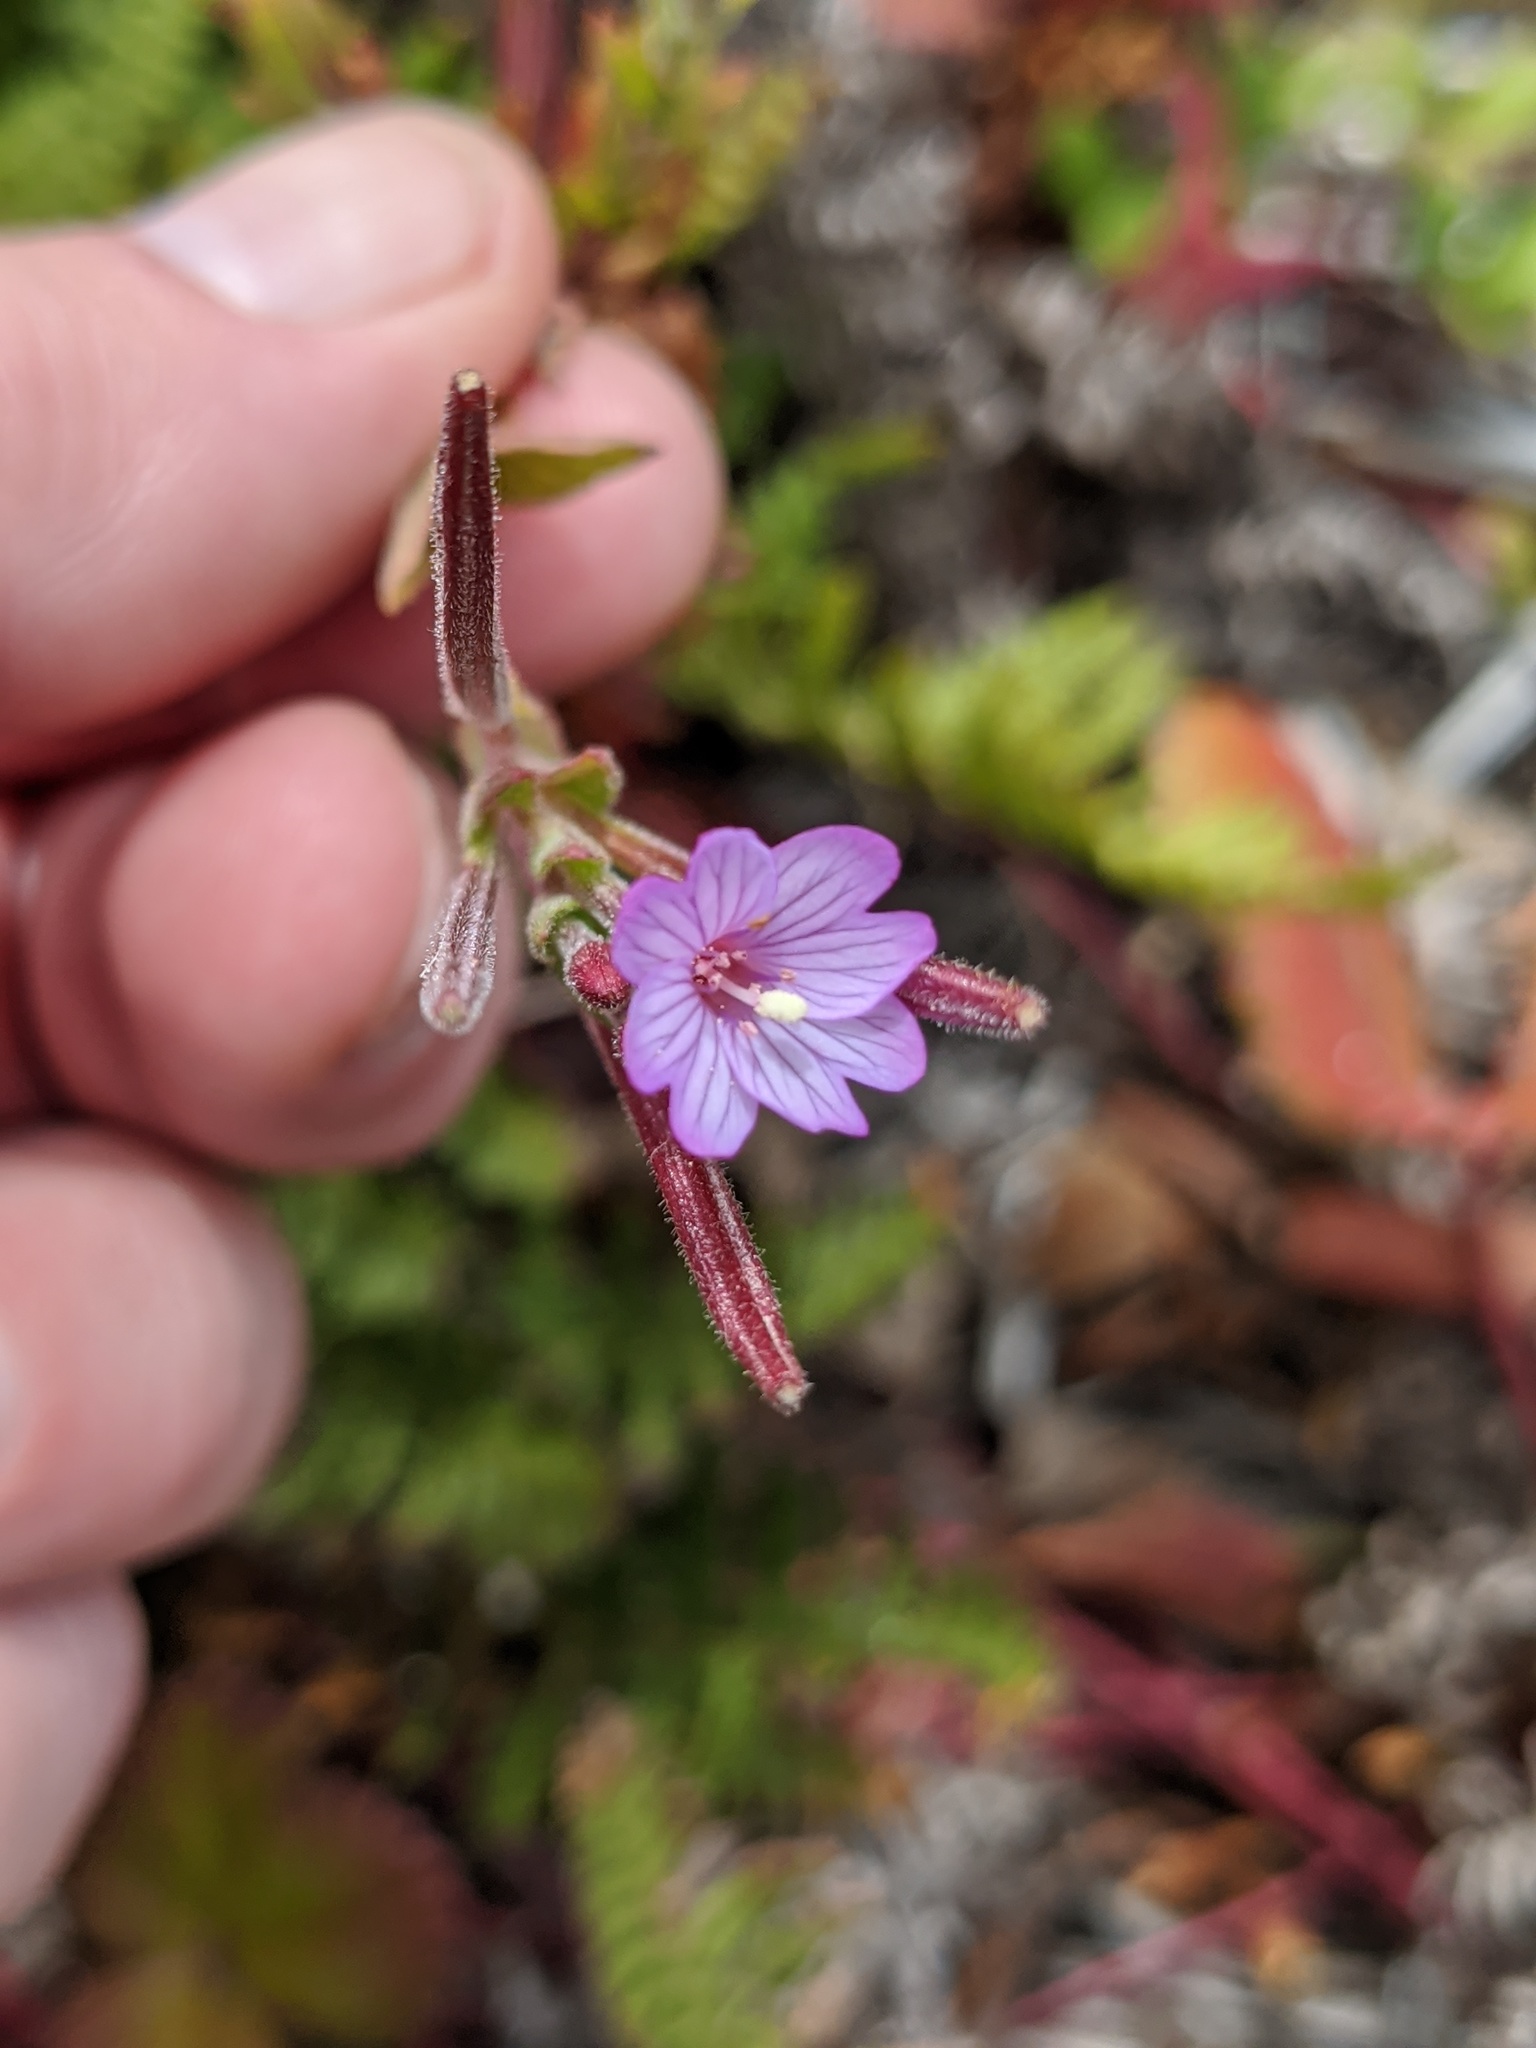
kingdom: Plantae
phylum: Tracheophyta
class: Magnoliopsida
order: Myrtales
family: Onagraceae
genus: Epilobium
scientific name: Epilobium ciliatum
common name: American willowherb
